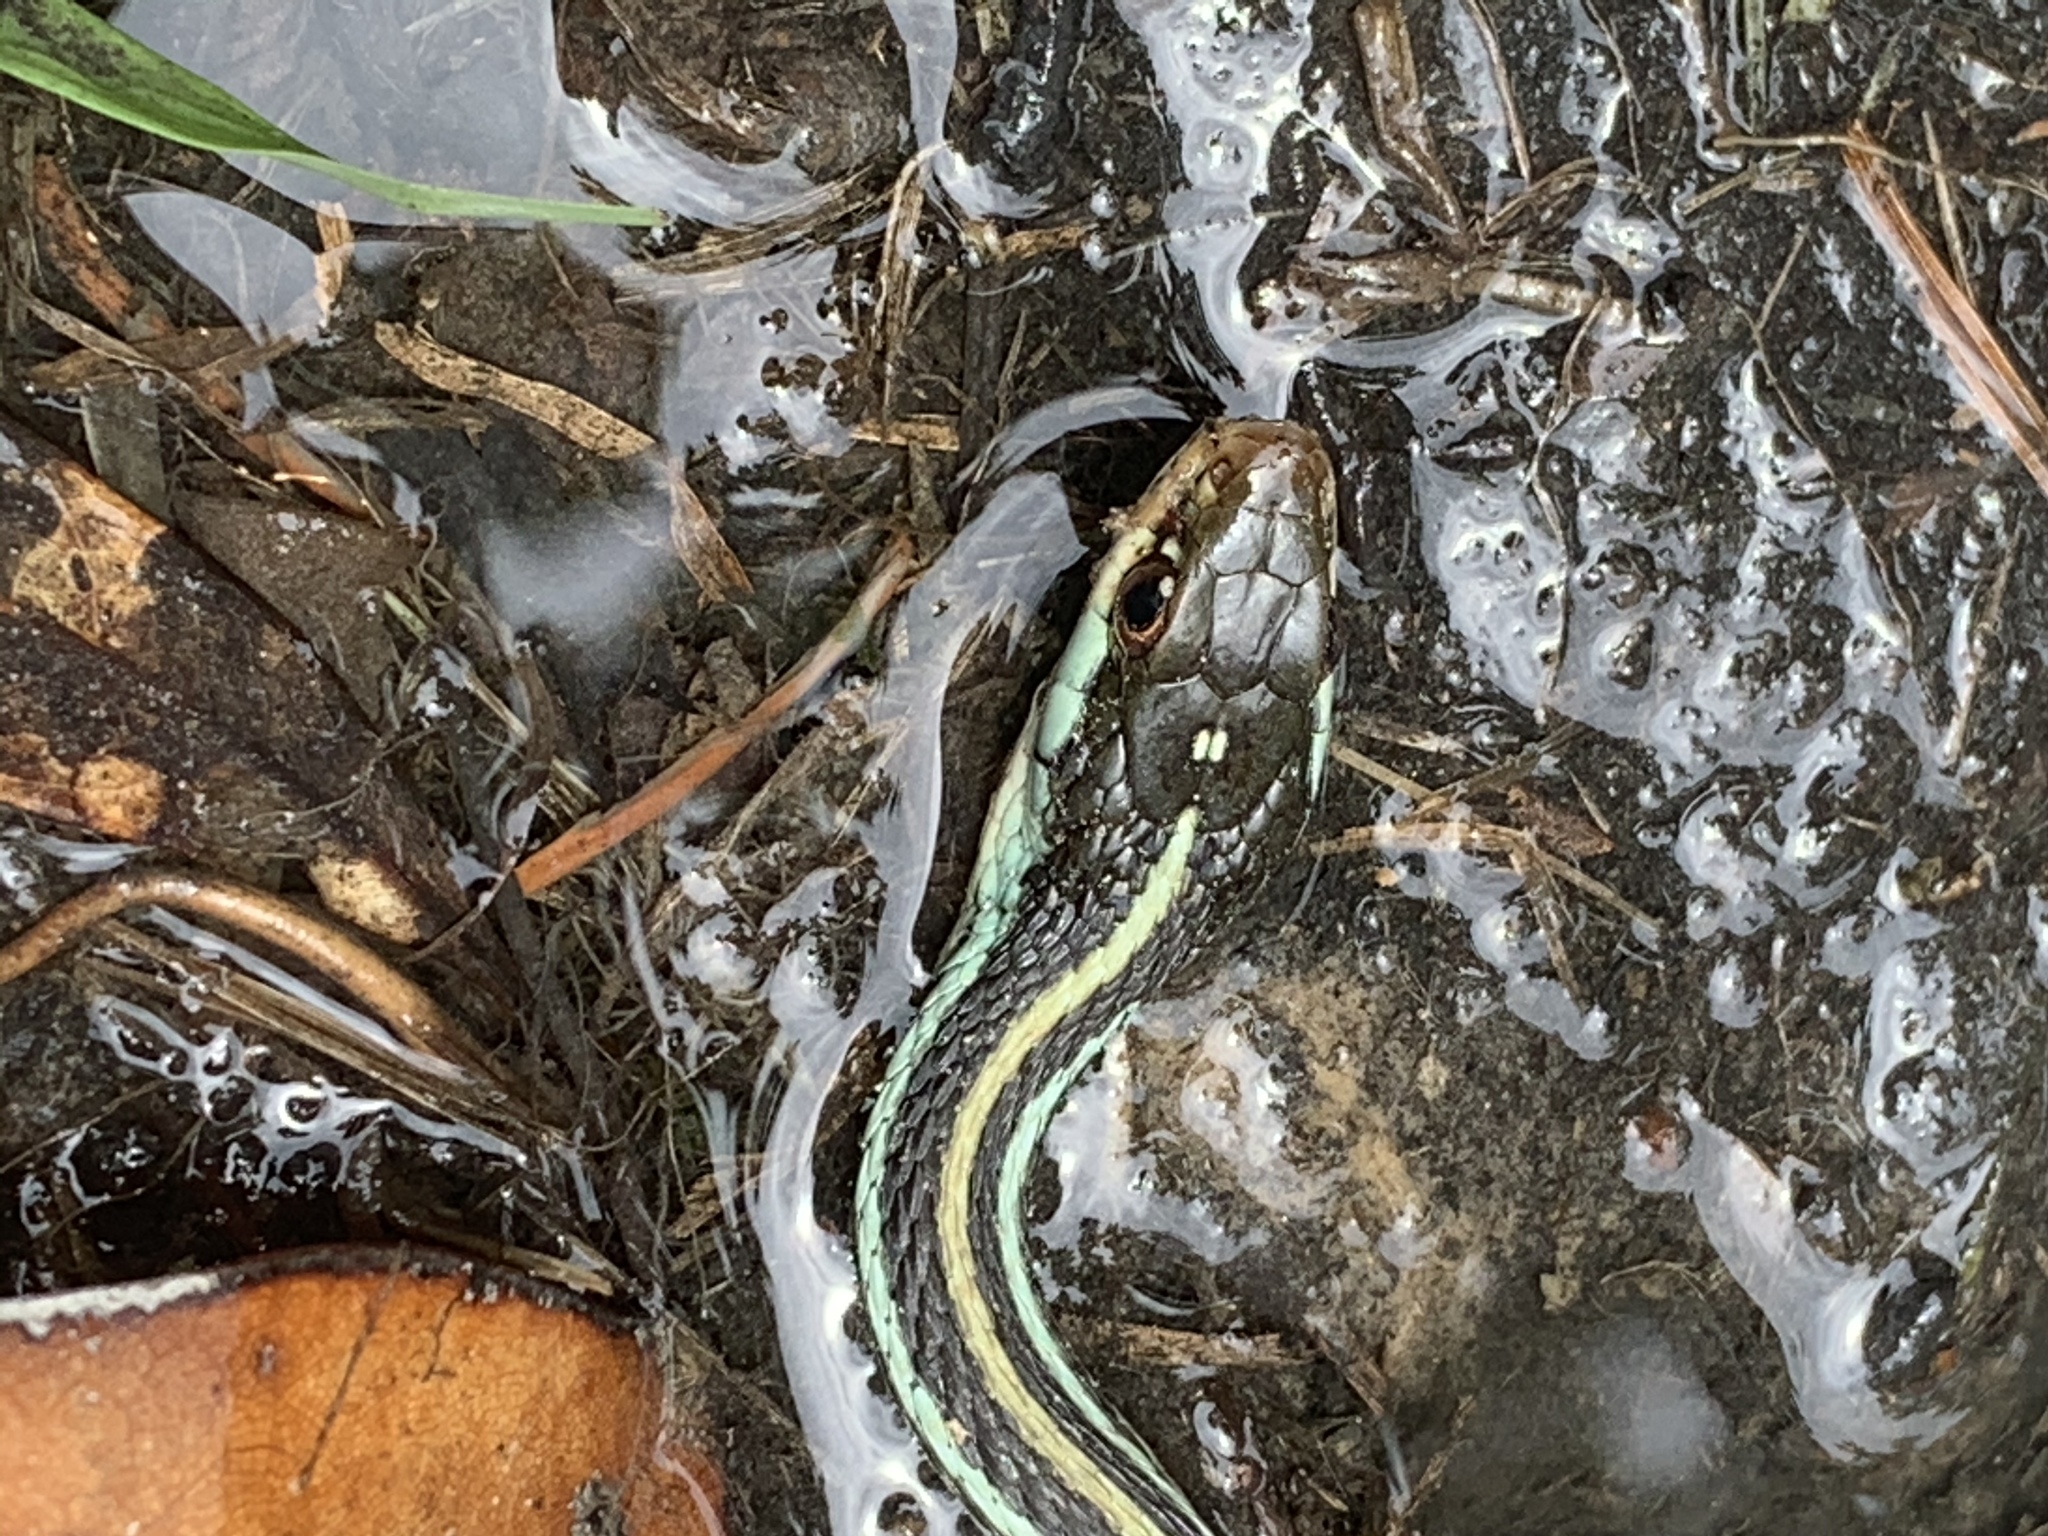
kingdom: Animalia
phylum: Chordata
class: Squamata
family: Colubridae
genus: Thamnophis
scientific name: Thamnophis proximus
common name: Western ribbon snake
